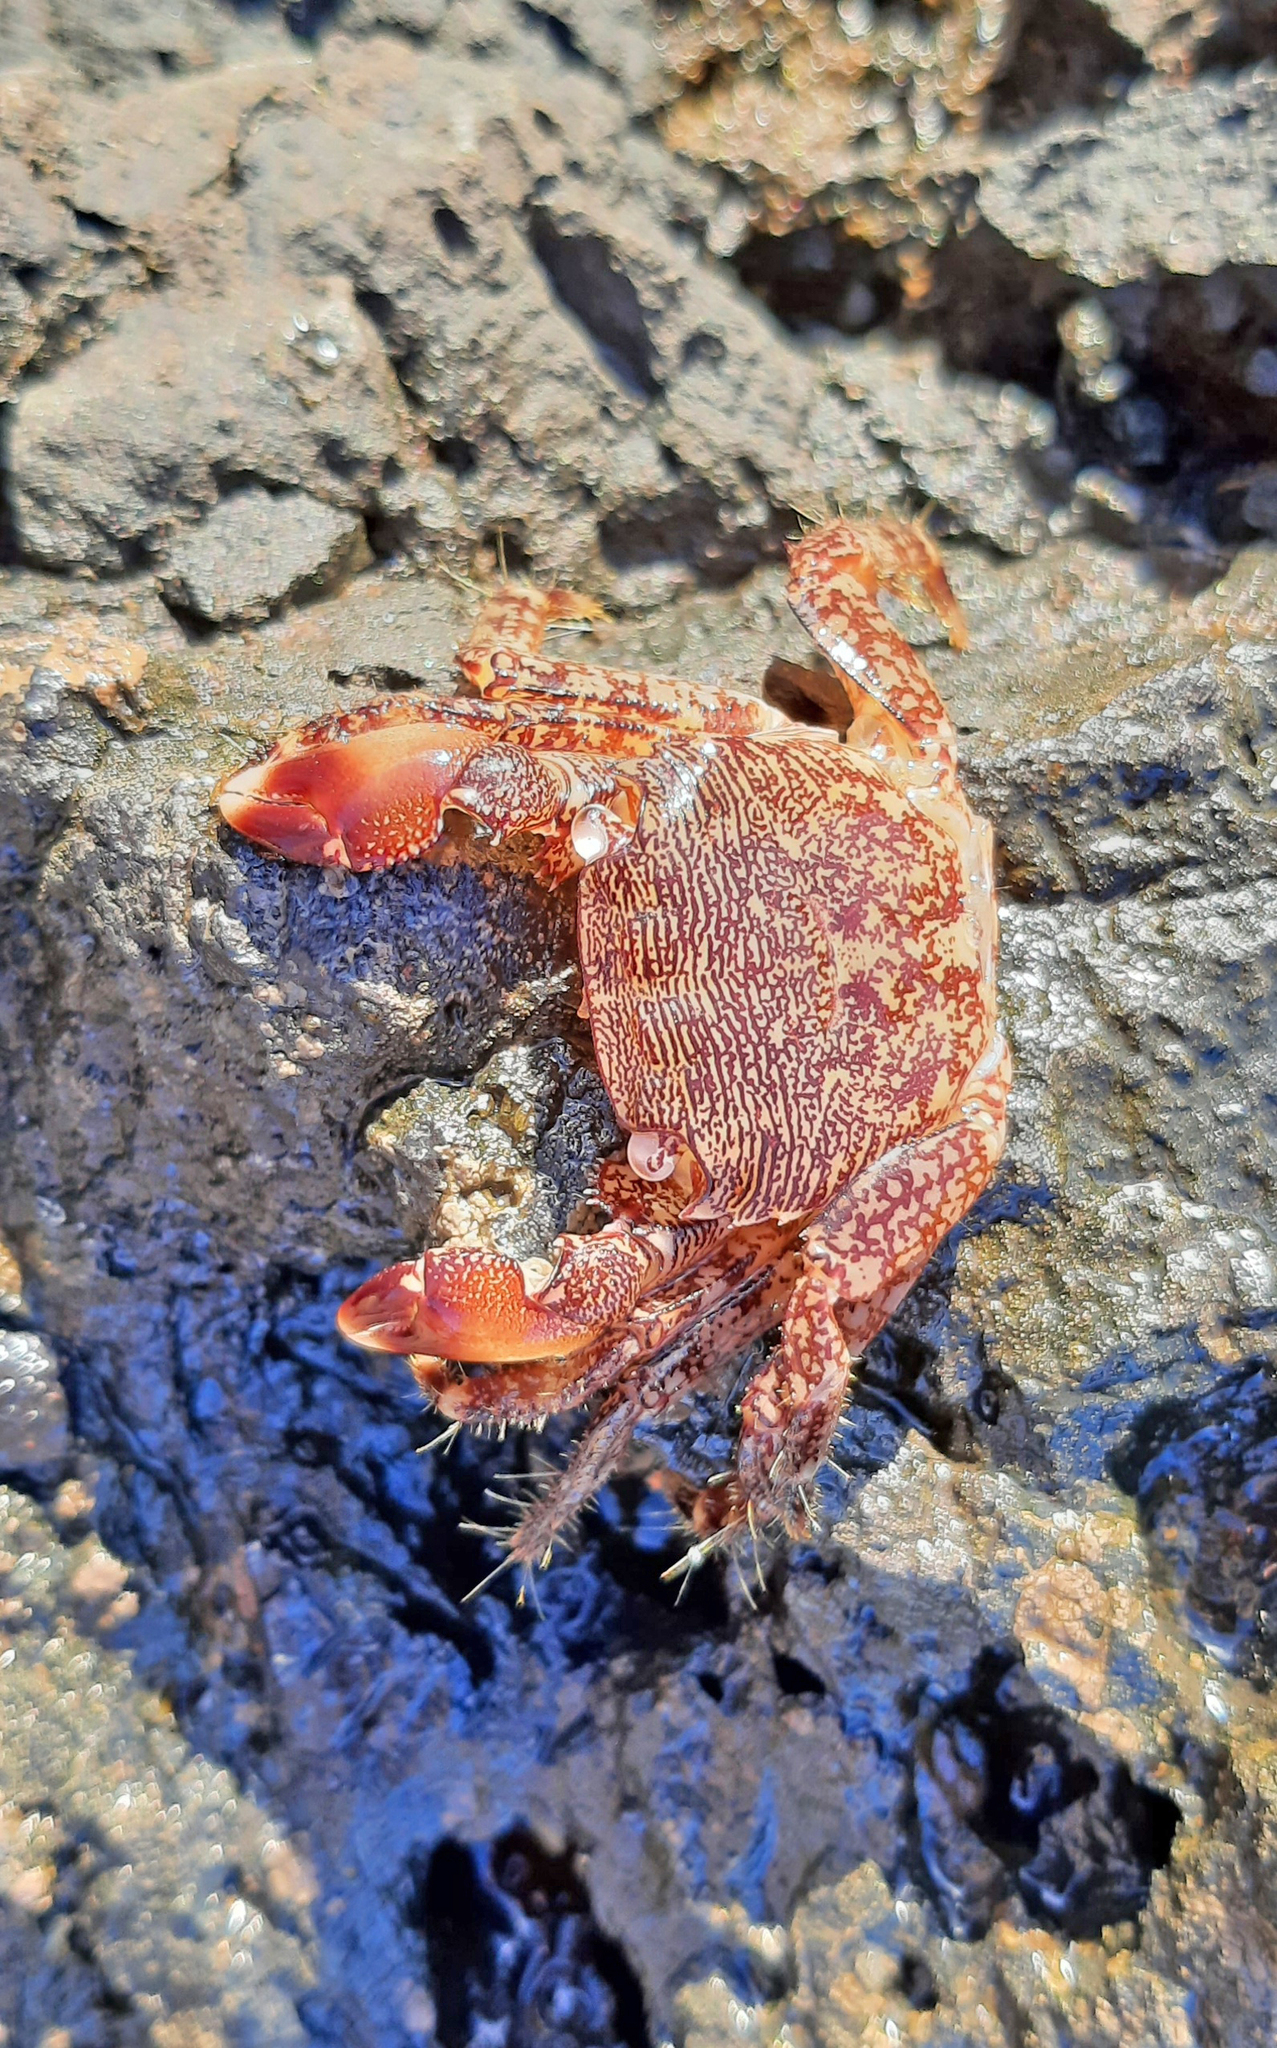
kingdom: Animalia
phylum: Arthropoda
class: Malacostraca
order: Decapoda
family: Grapsidae
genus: Pachygrapsus
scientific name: Pachygrapsus marmoratus
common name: Marbled rock crab
